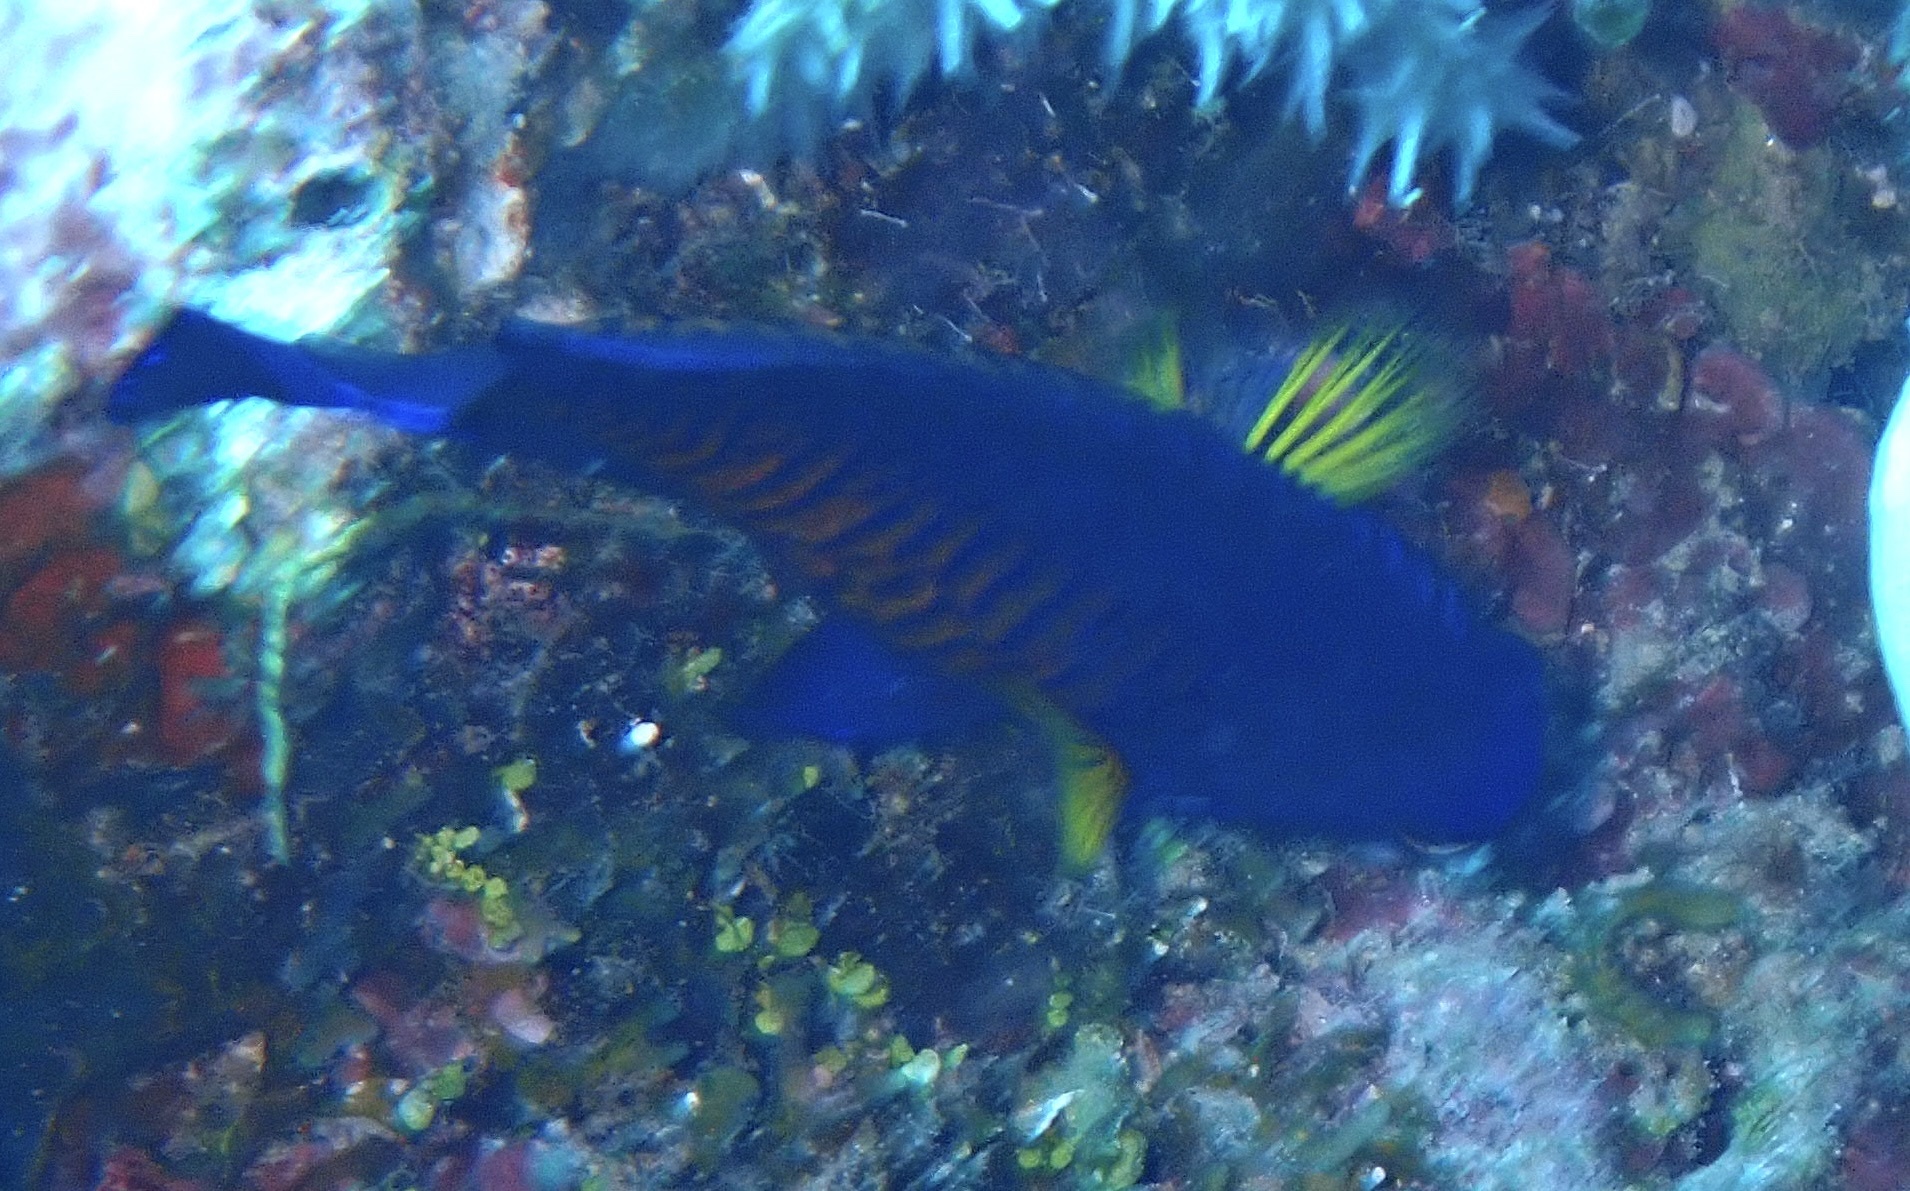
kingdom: Animalia
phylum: Chordata
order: Perciformes
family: Pomacanthidae
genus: Centropyge
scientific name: Centropyge bispinosa
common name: Coral beauty
